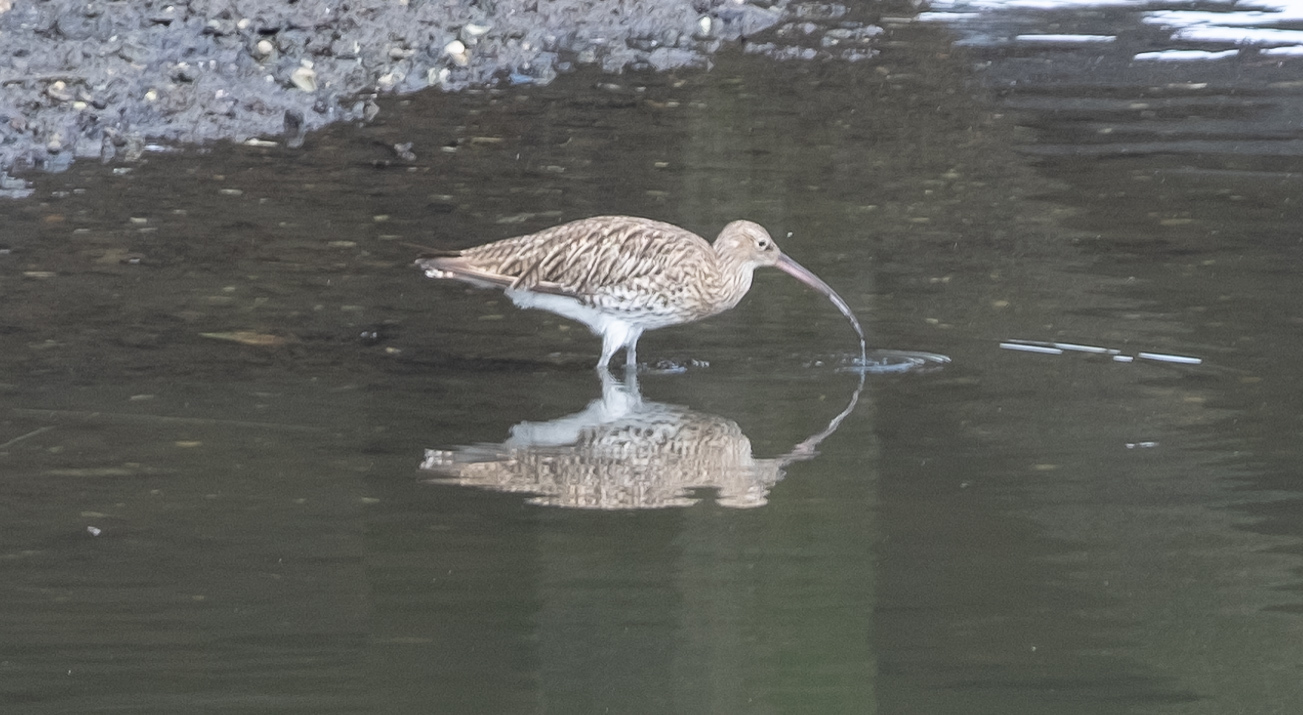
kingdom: Animalia
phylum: Chordata
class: Aves
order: Charadriiformes
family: Scolopacidae
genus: Numenius
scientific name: Numenius arquata
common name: Eurasian curlew
